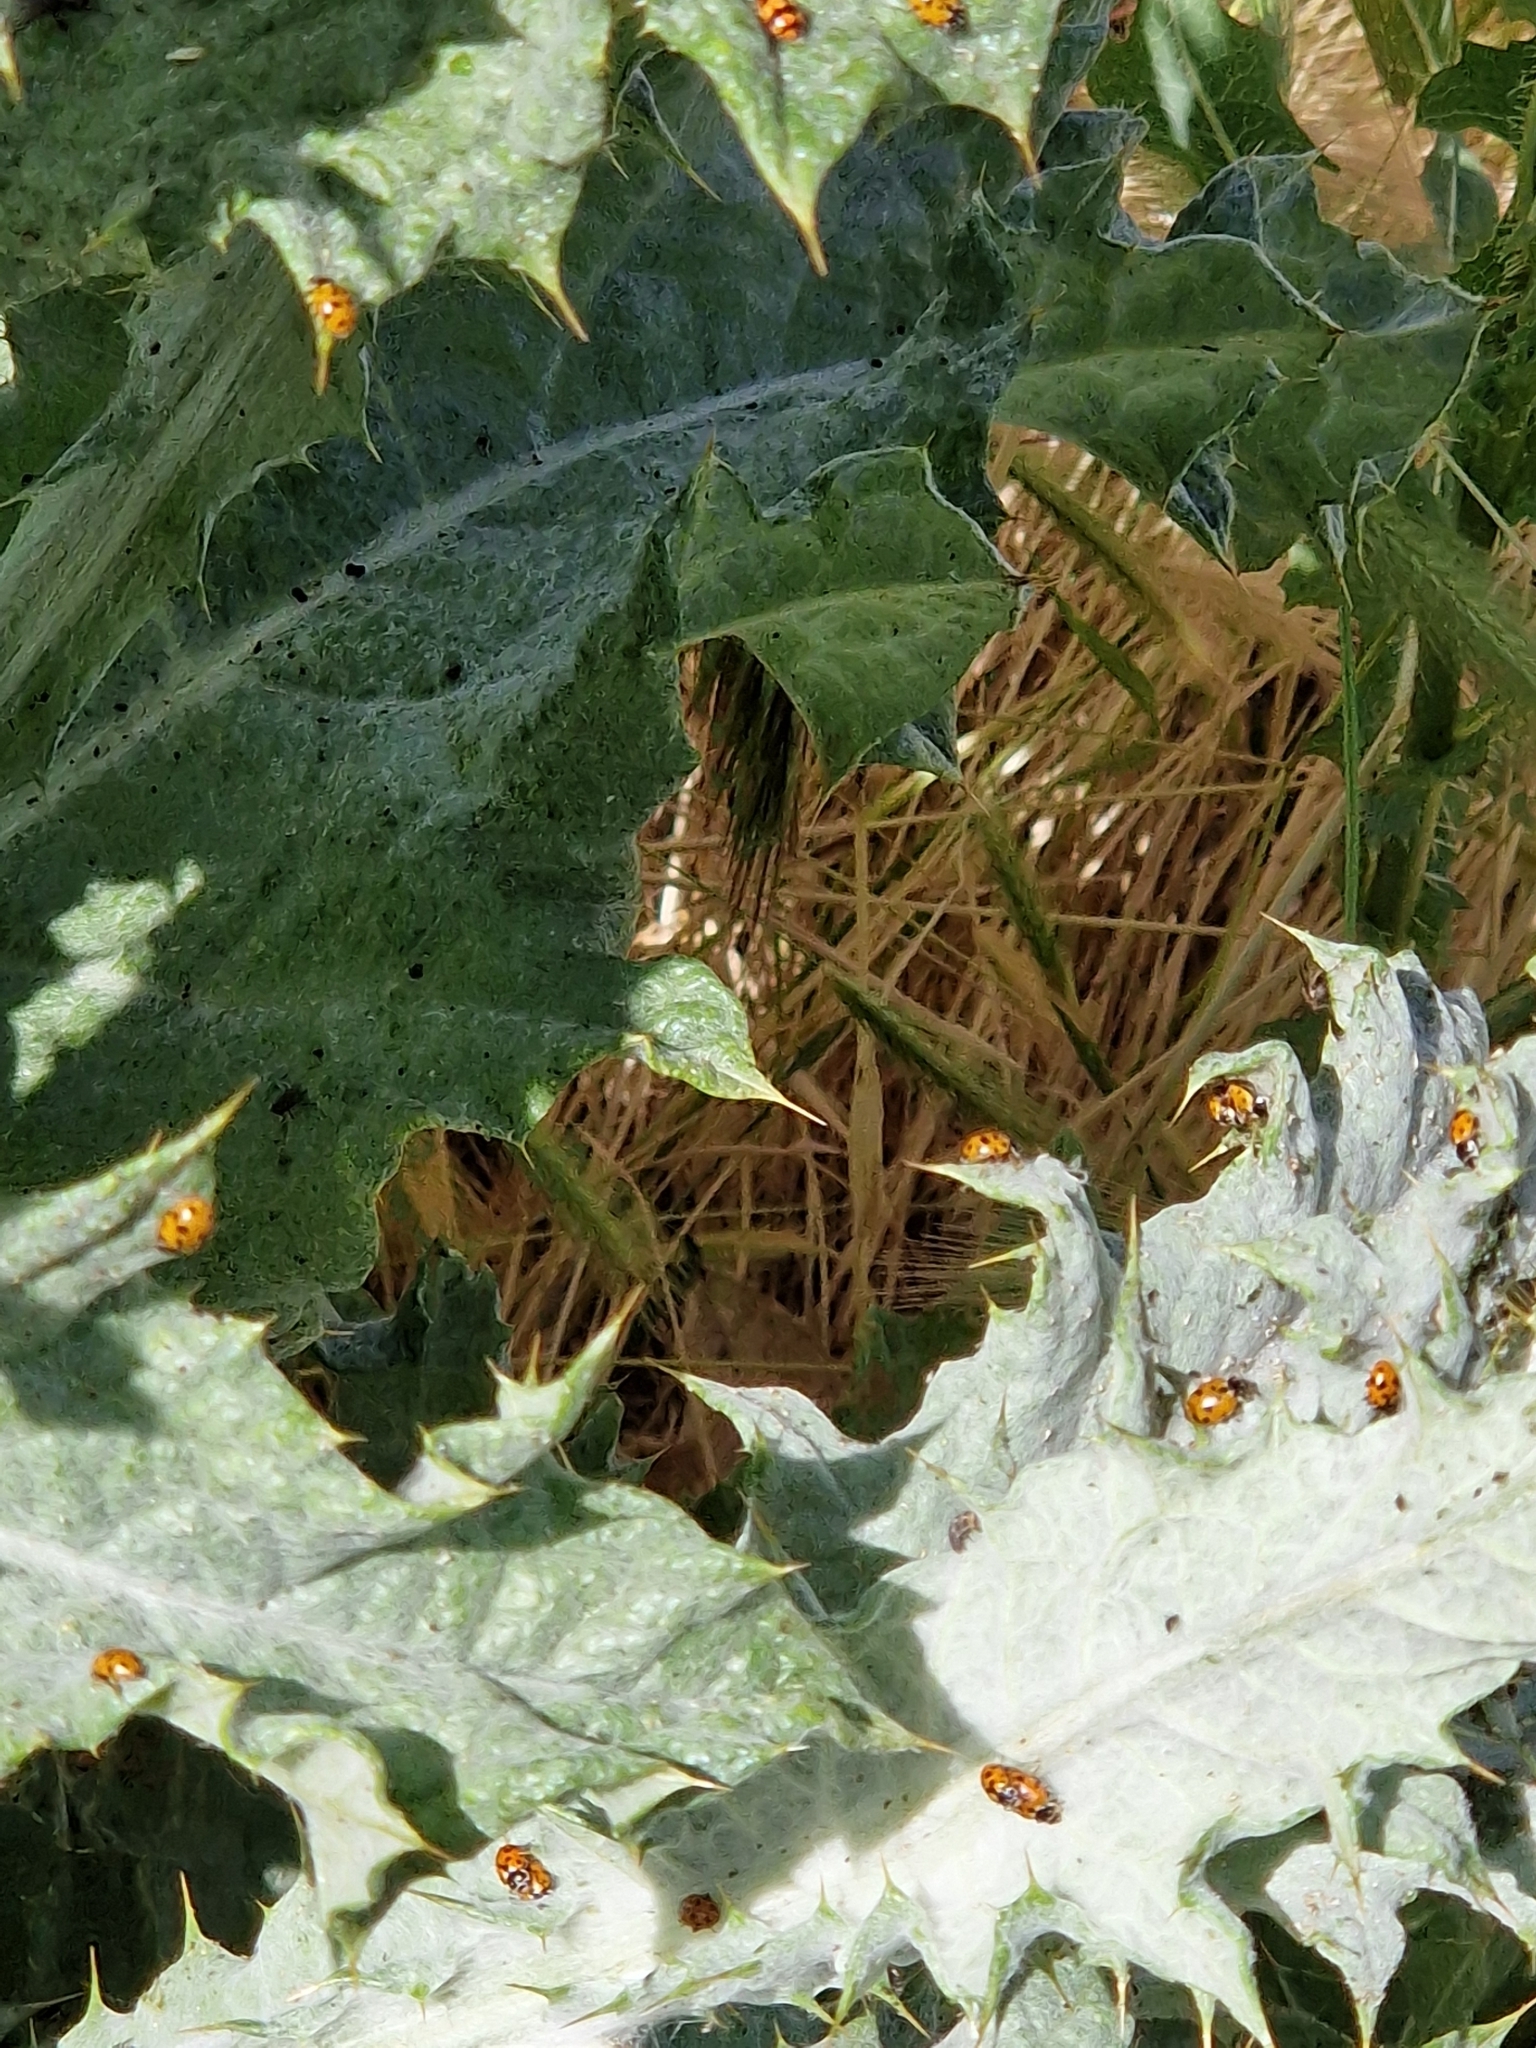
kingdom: Animalia
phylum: Arthropoda
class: Insecta
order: Coleoptera
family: Coccinellidae
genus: Hippodamia
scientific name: Hippodamia variegata
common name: Ladybird beetle
